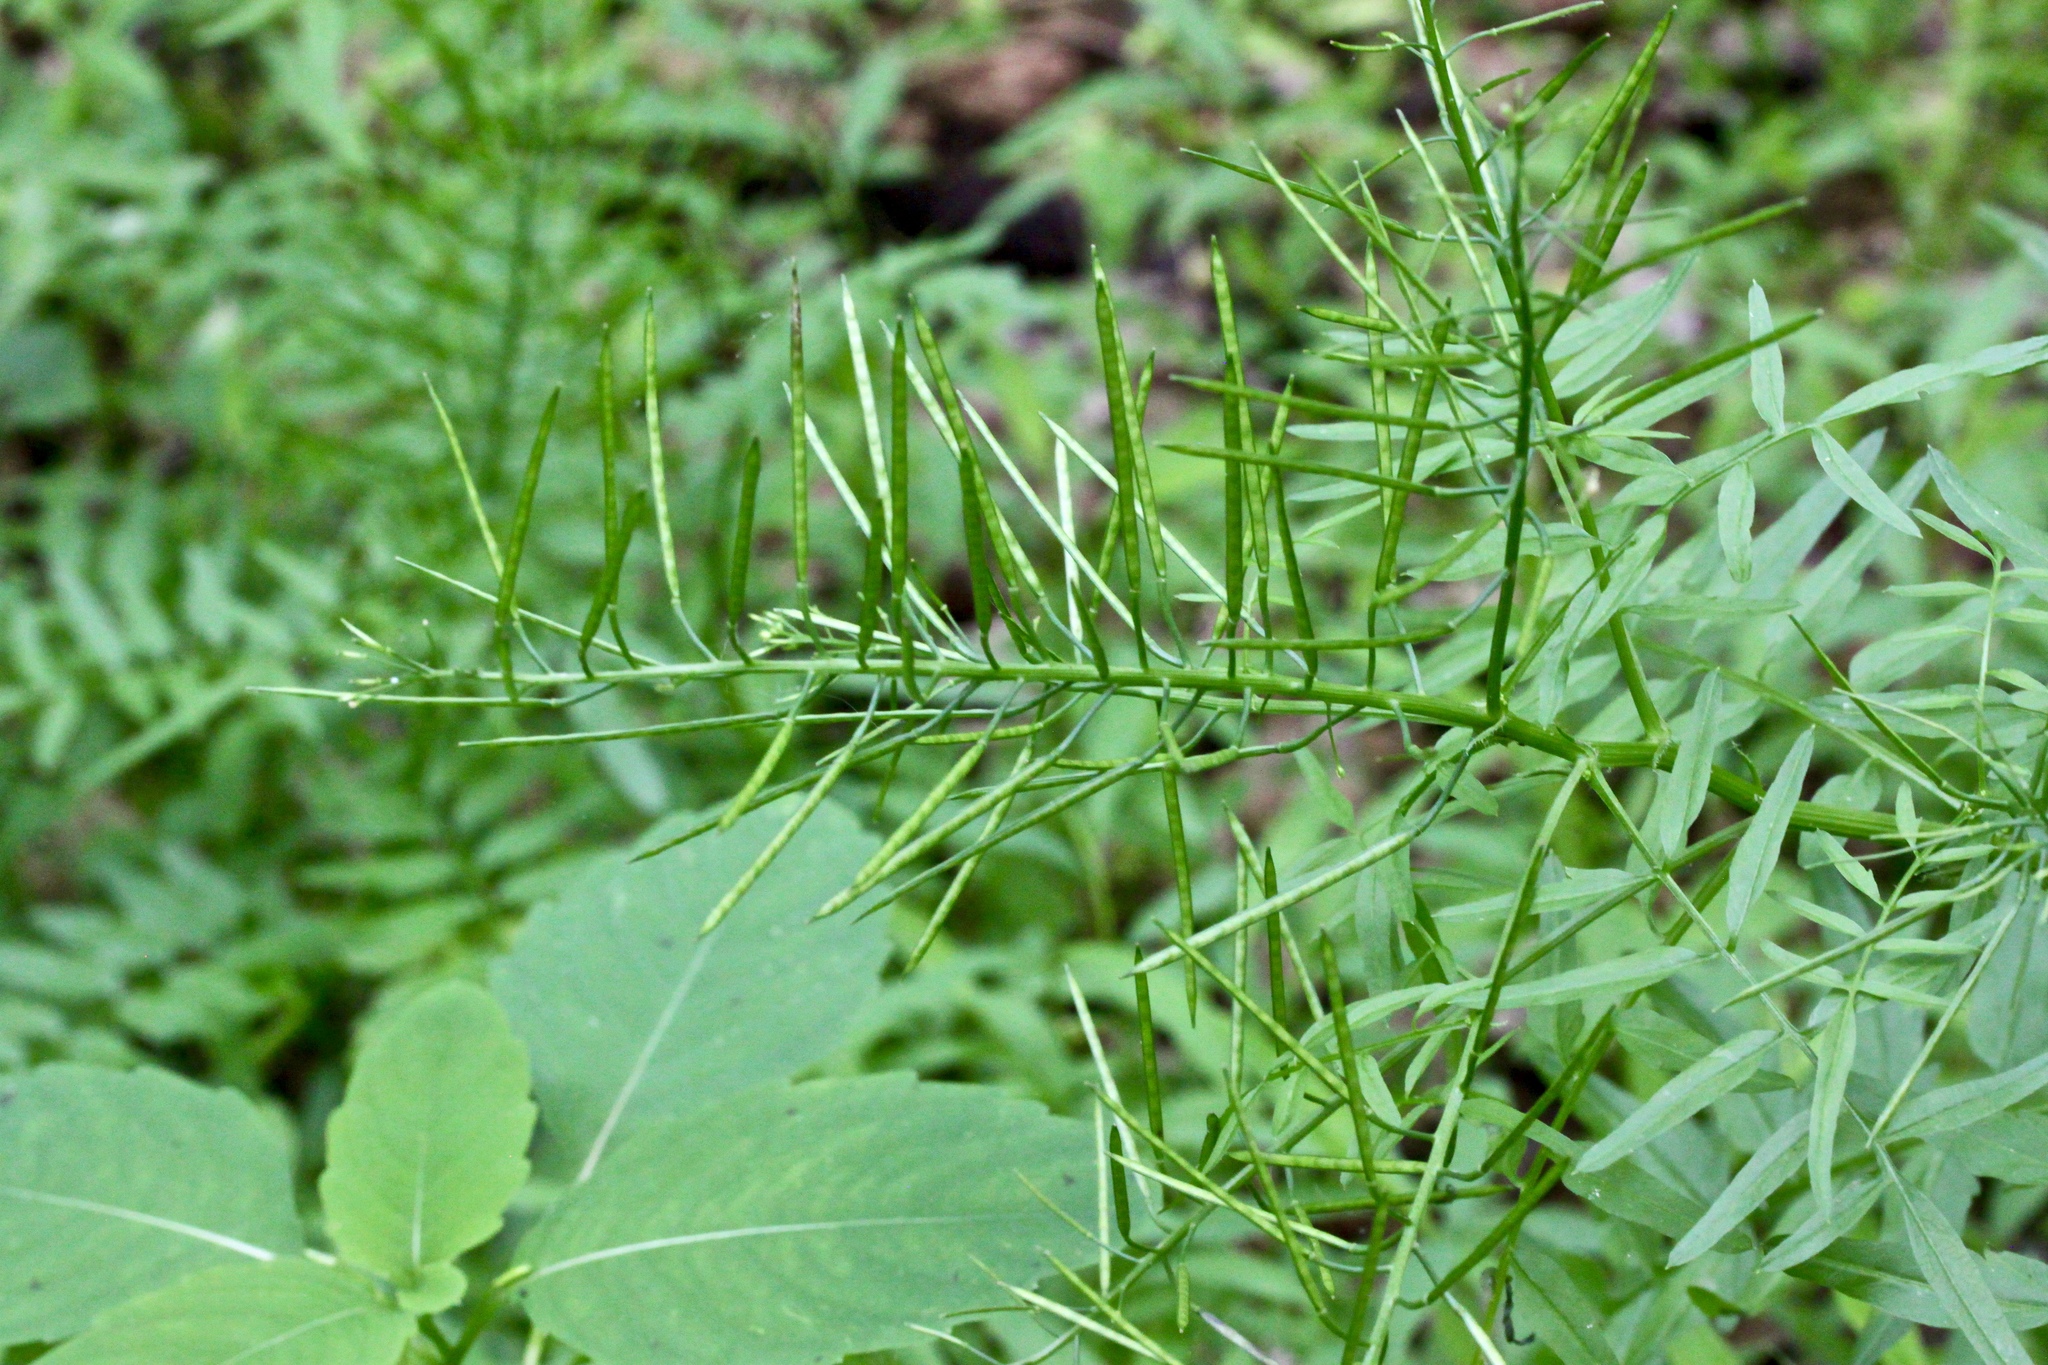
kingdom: Plantae
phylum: Tracheophyta
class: Magnoliopsida
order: Brassicales
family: Brassicaceae
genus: Cardamine
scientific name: Cardamine impatiens
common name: Narrow-leaved bitter-cress
